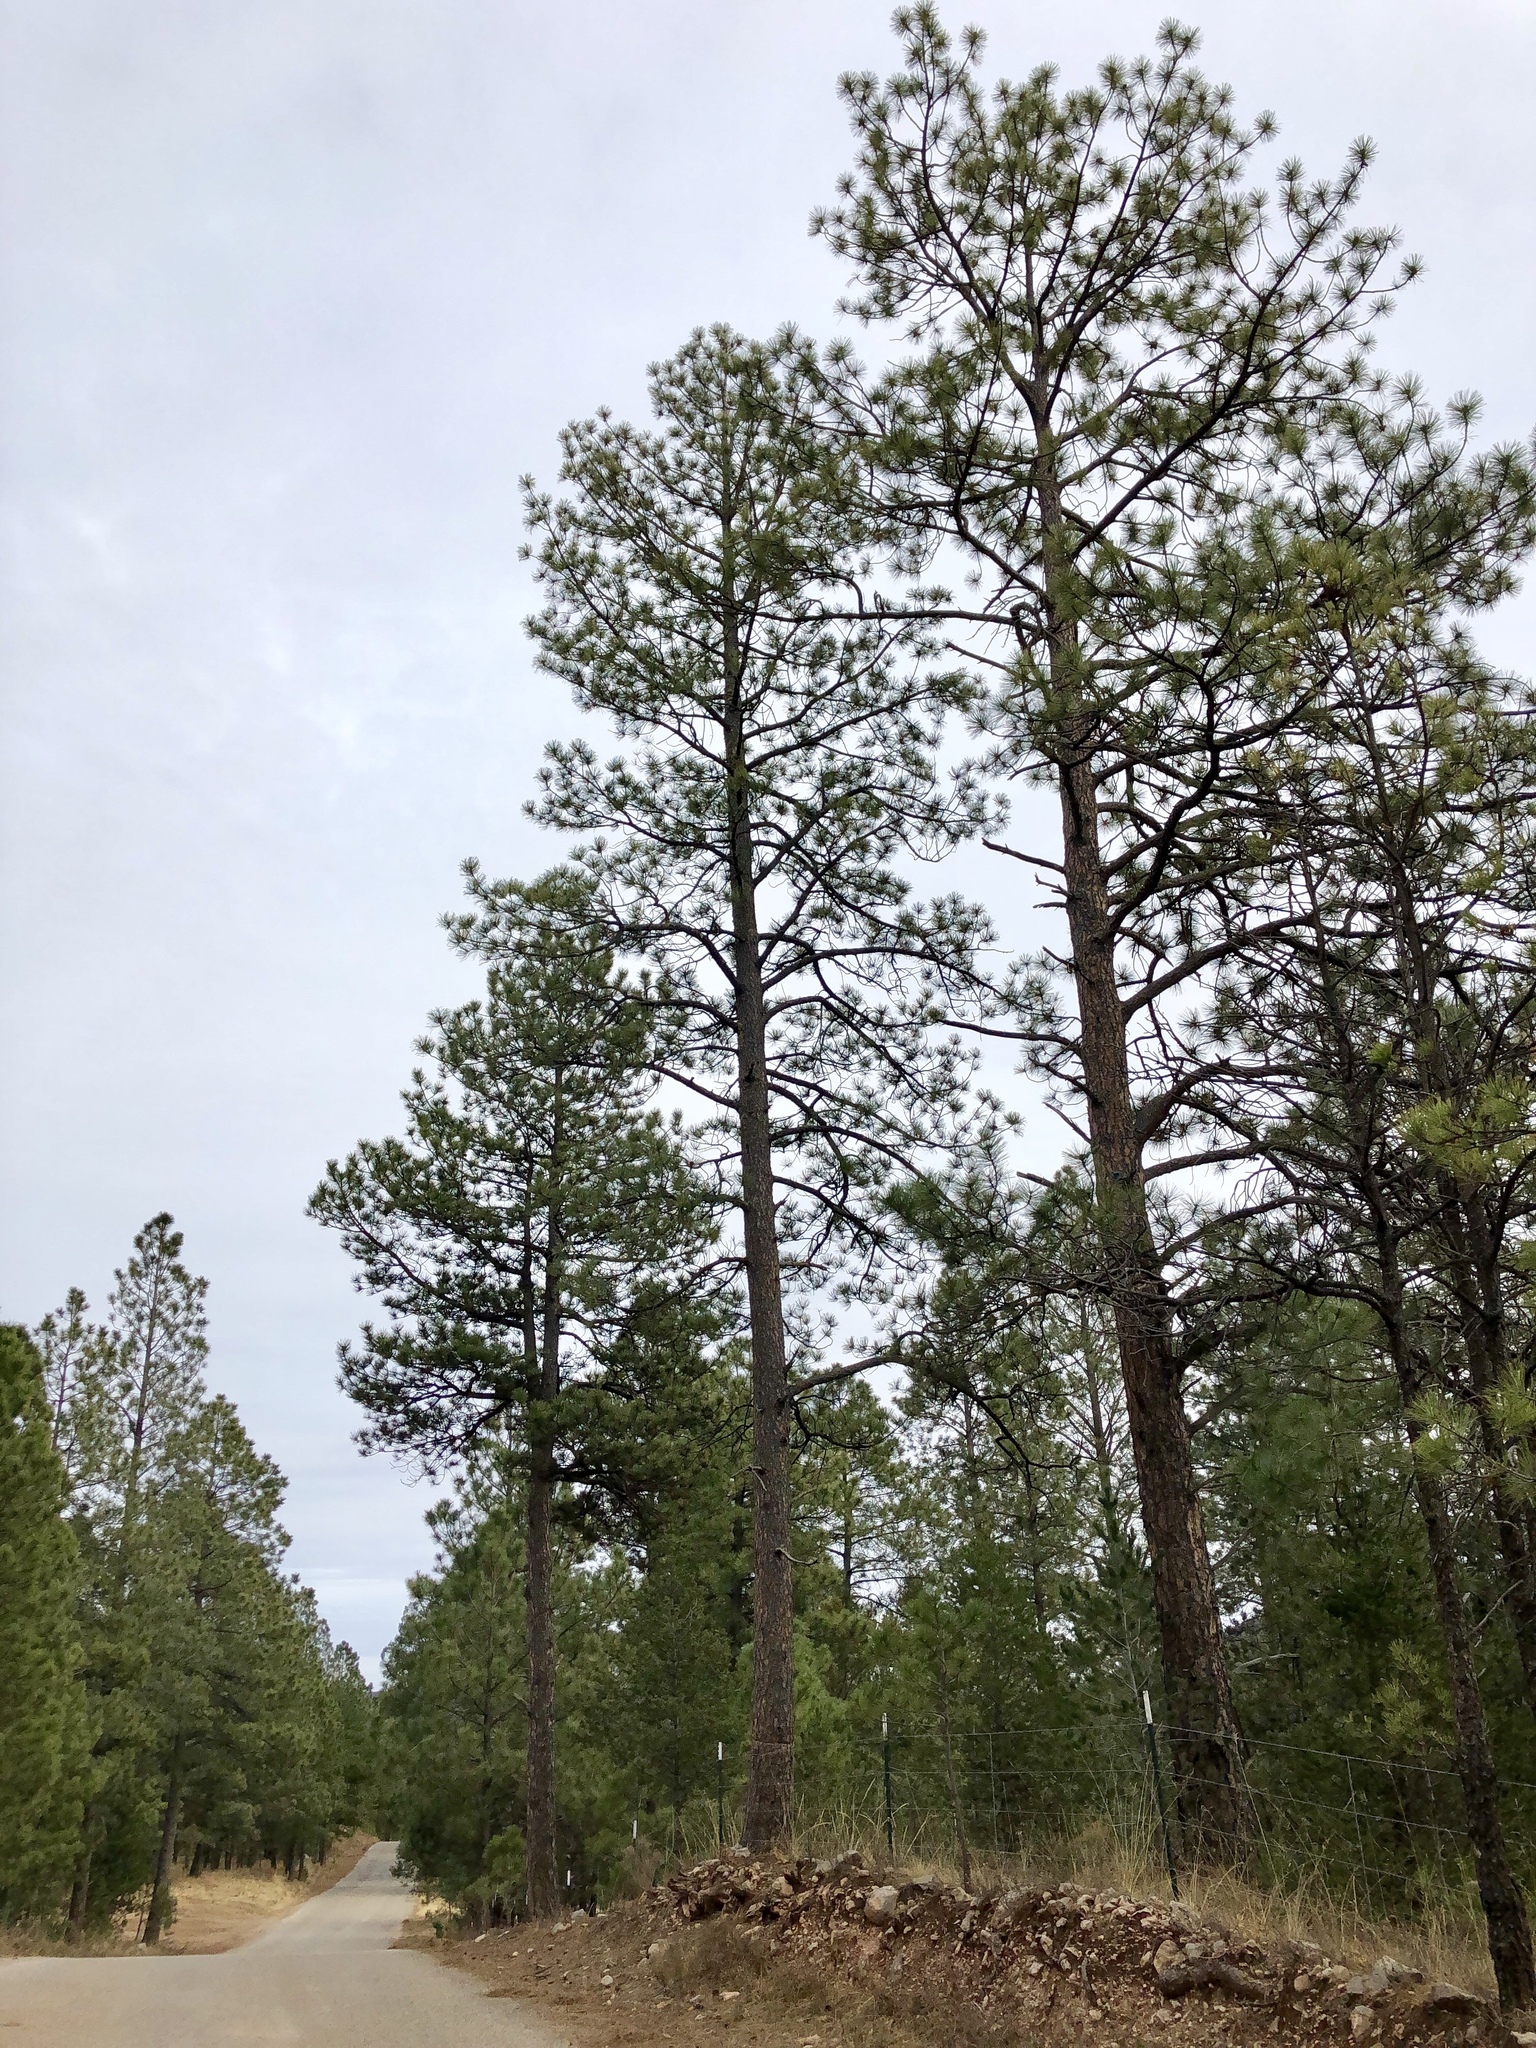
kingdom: Plantae
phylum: Tracheophyta
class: Pinopsida
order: Pinales
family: Pinaceae
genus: Pinus
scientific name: Pinus ponderosa
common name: Western yellow-pine
